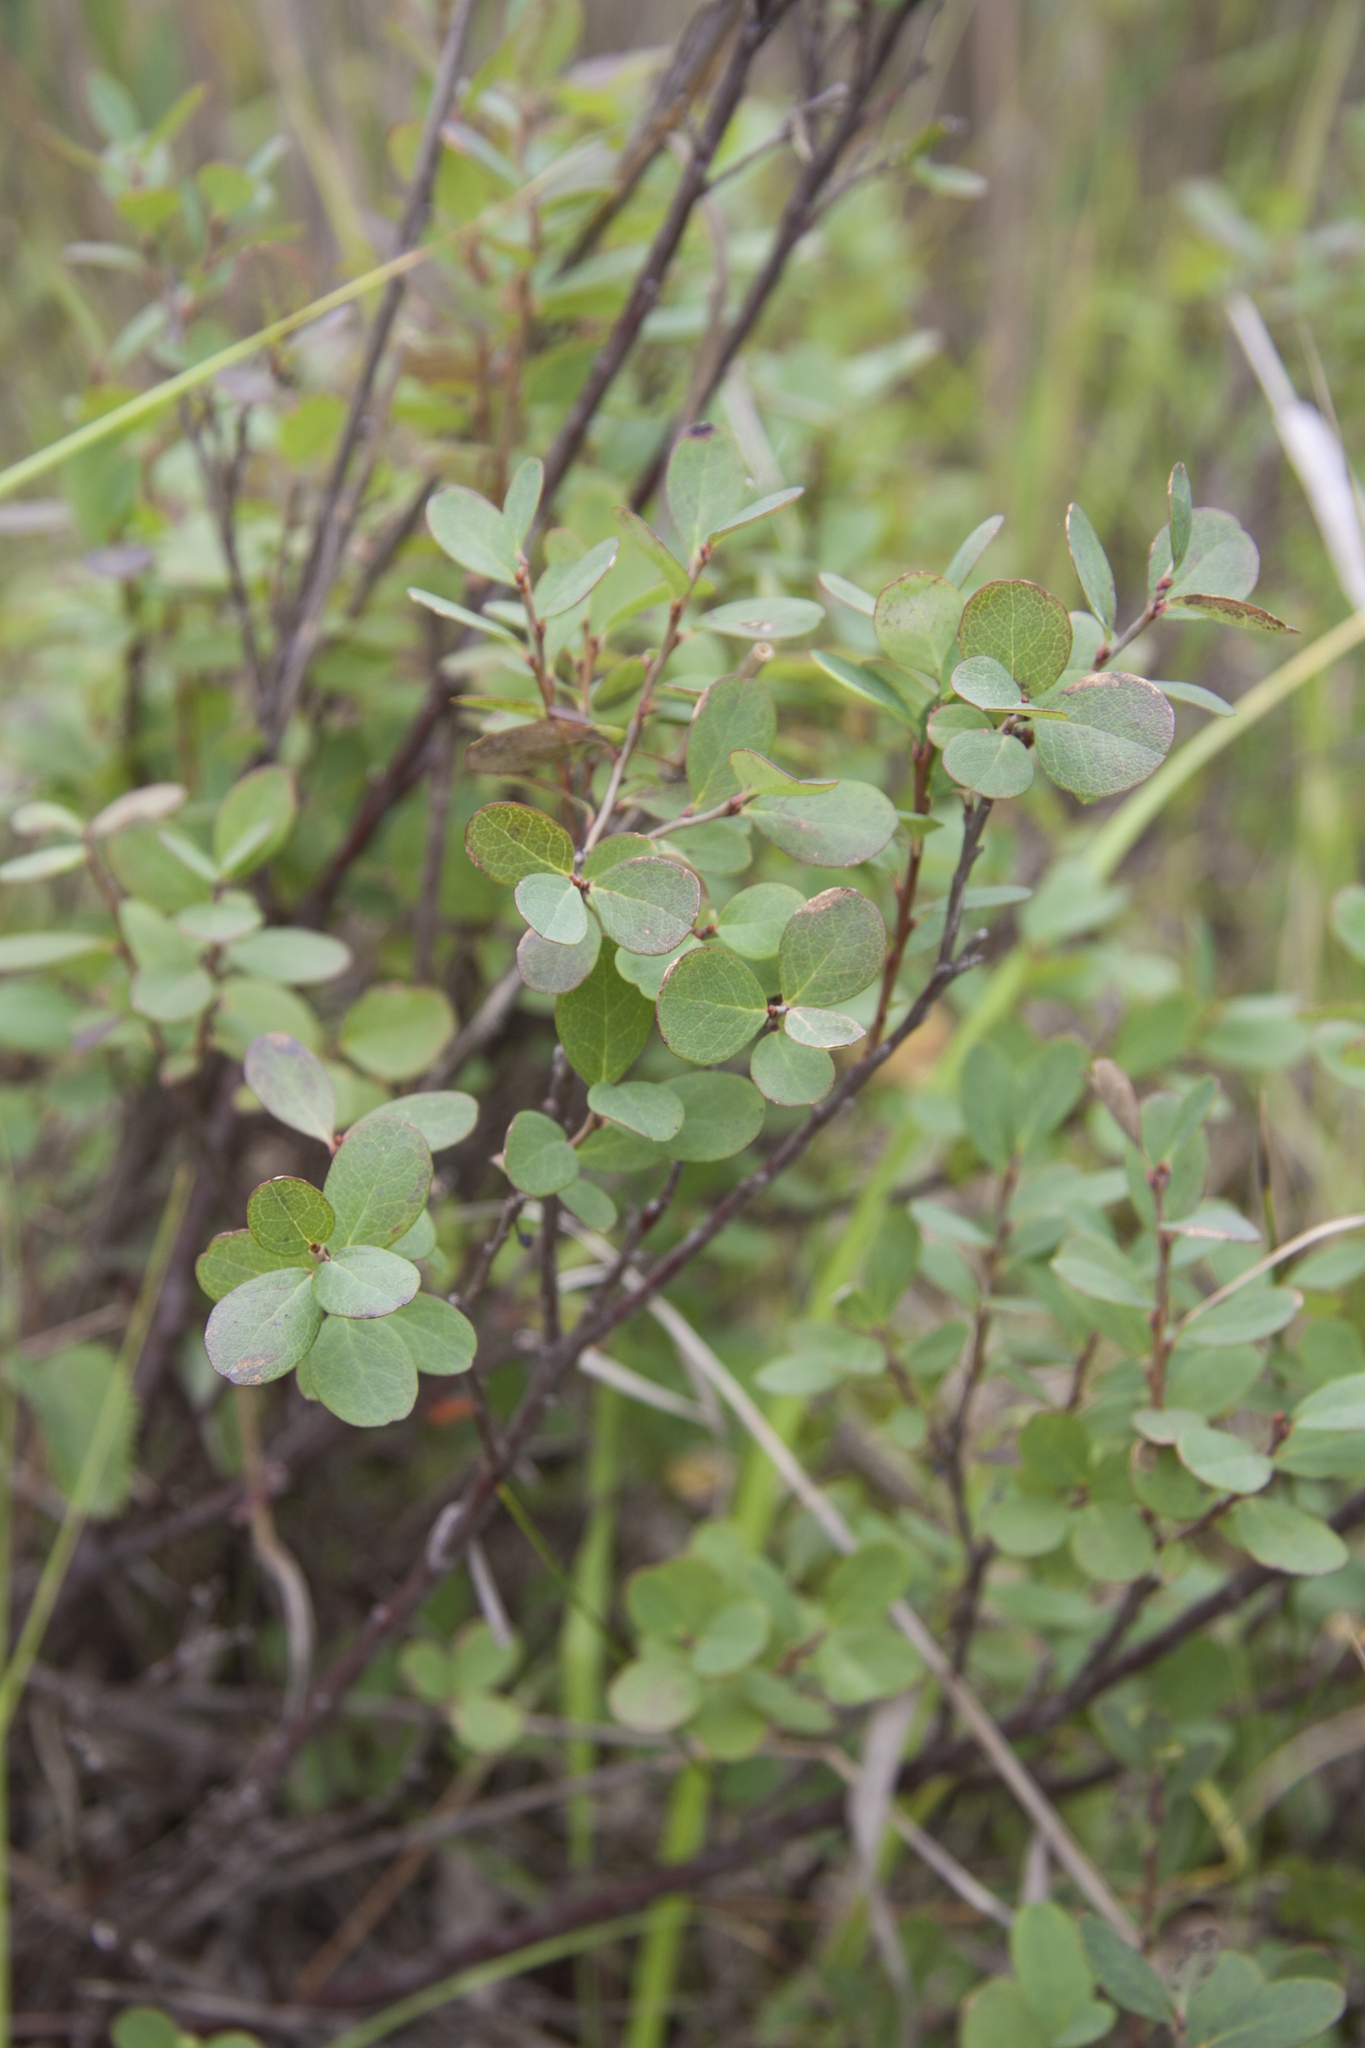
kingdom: Plantae
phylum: Tracheophyta
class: Magnoliopsida
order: Ericales
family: Ericaceae
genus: Vaccinium
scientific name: Vaccinium uliginosum
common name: Bog bilberry
